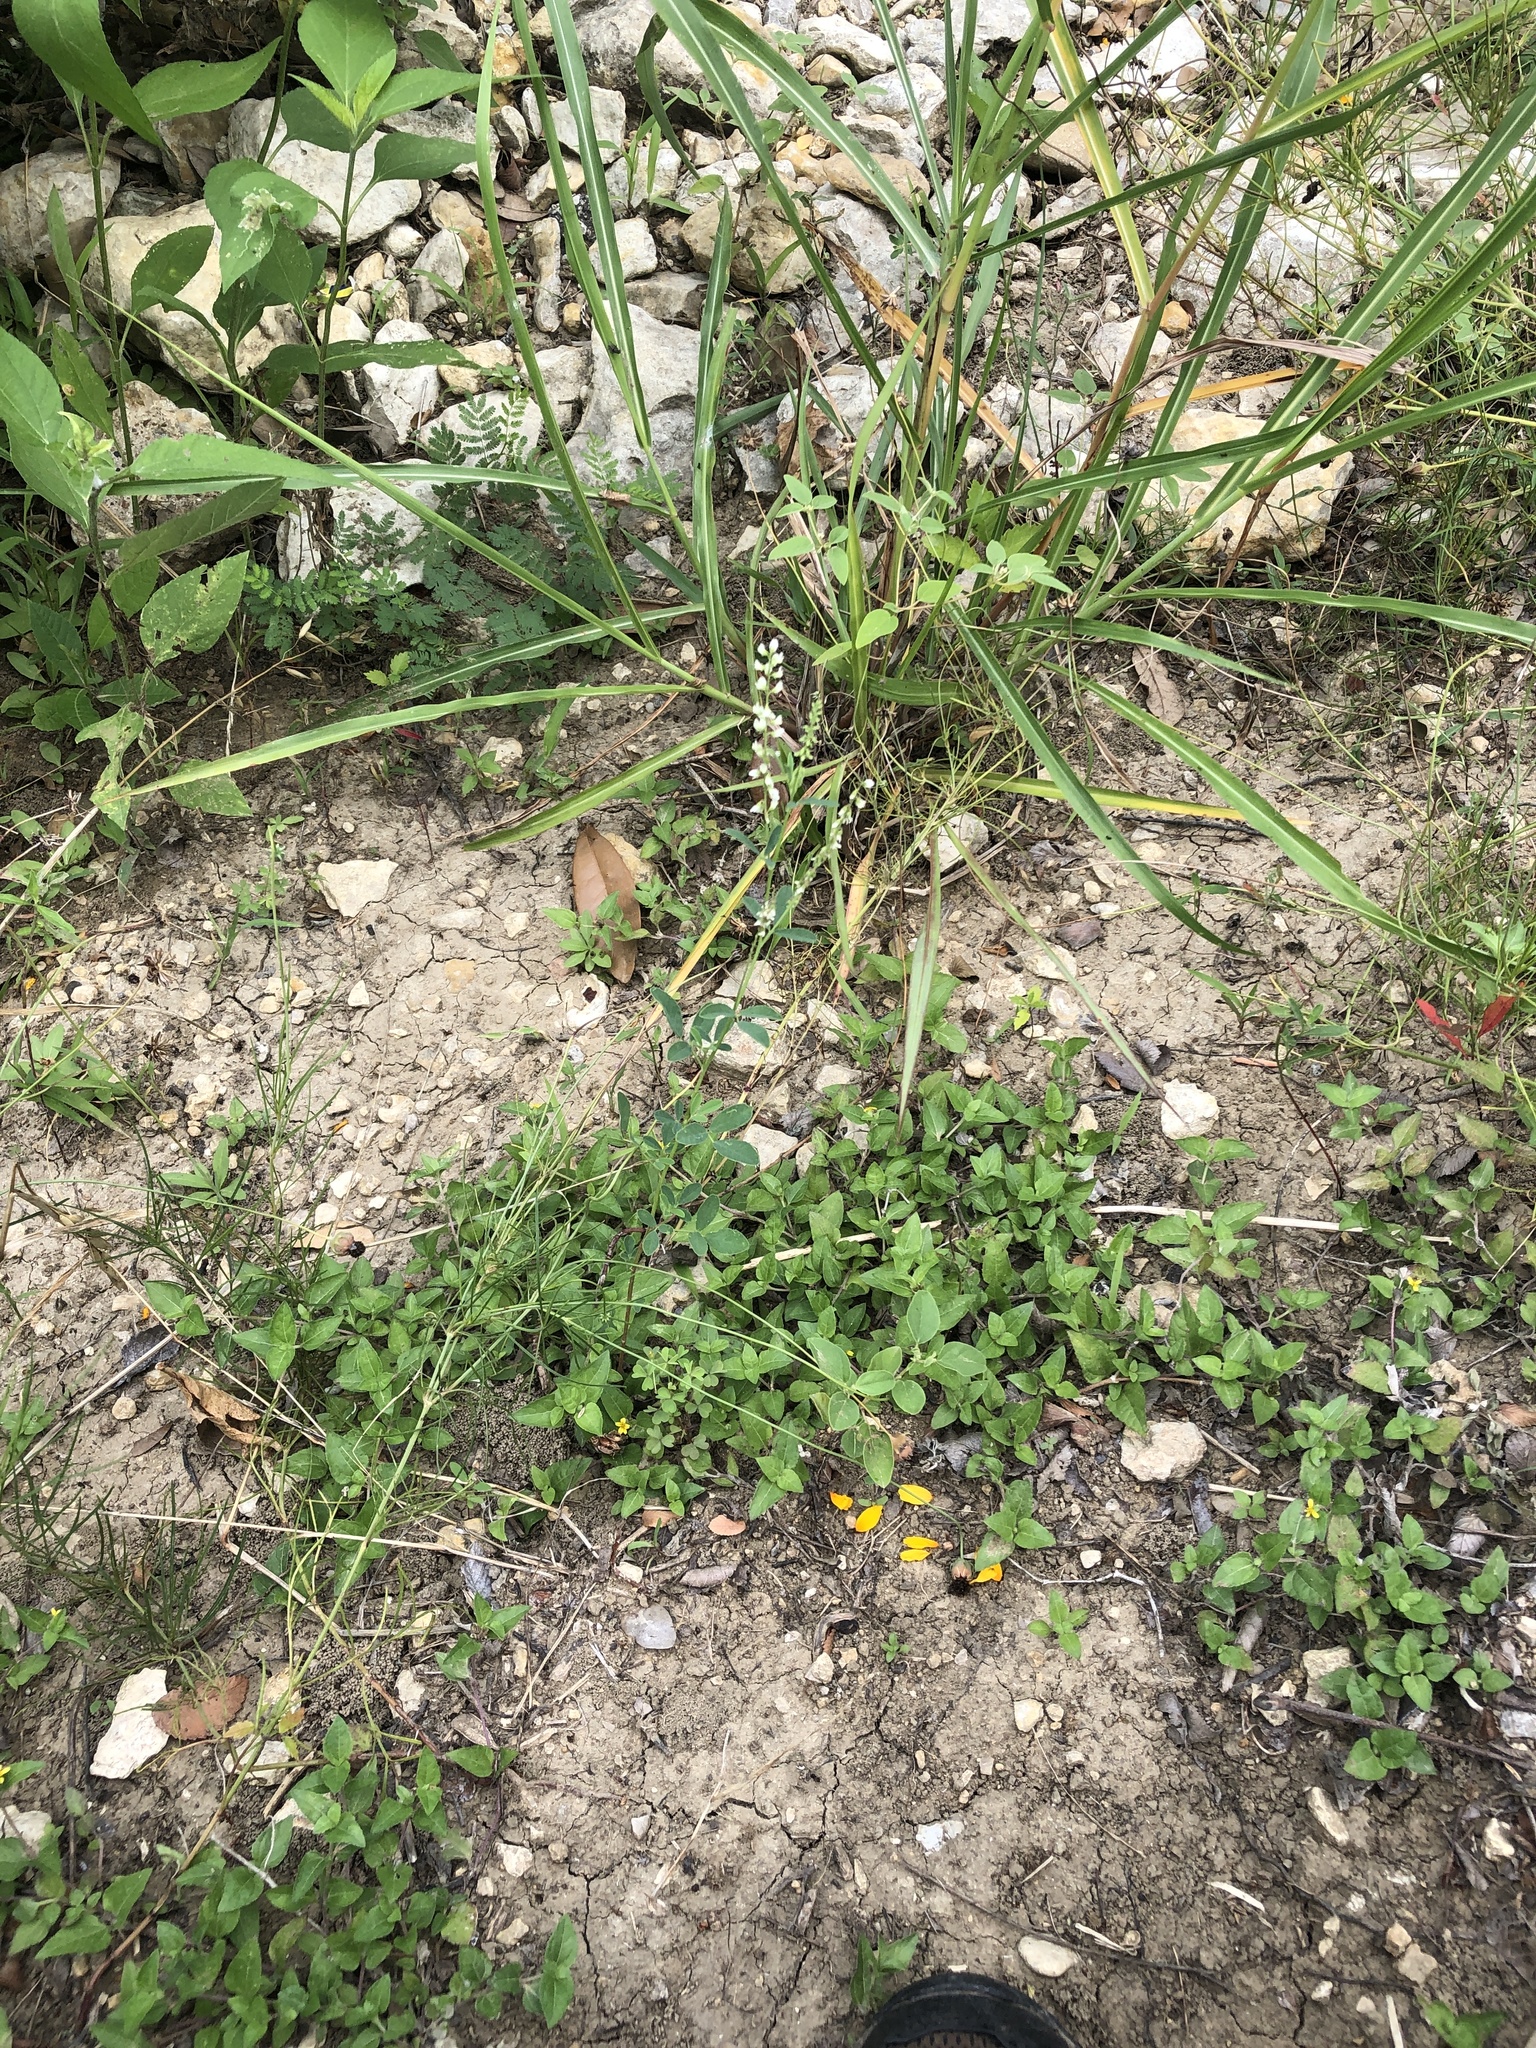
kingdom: Plantae
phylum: Tracheophyta
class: Magnoliopsida
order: Fabales
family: Fabaceae
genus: Melilotus
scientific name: Melilotus albus
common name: White melilot
